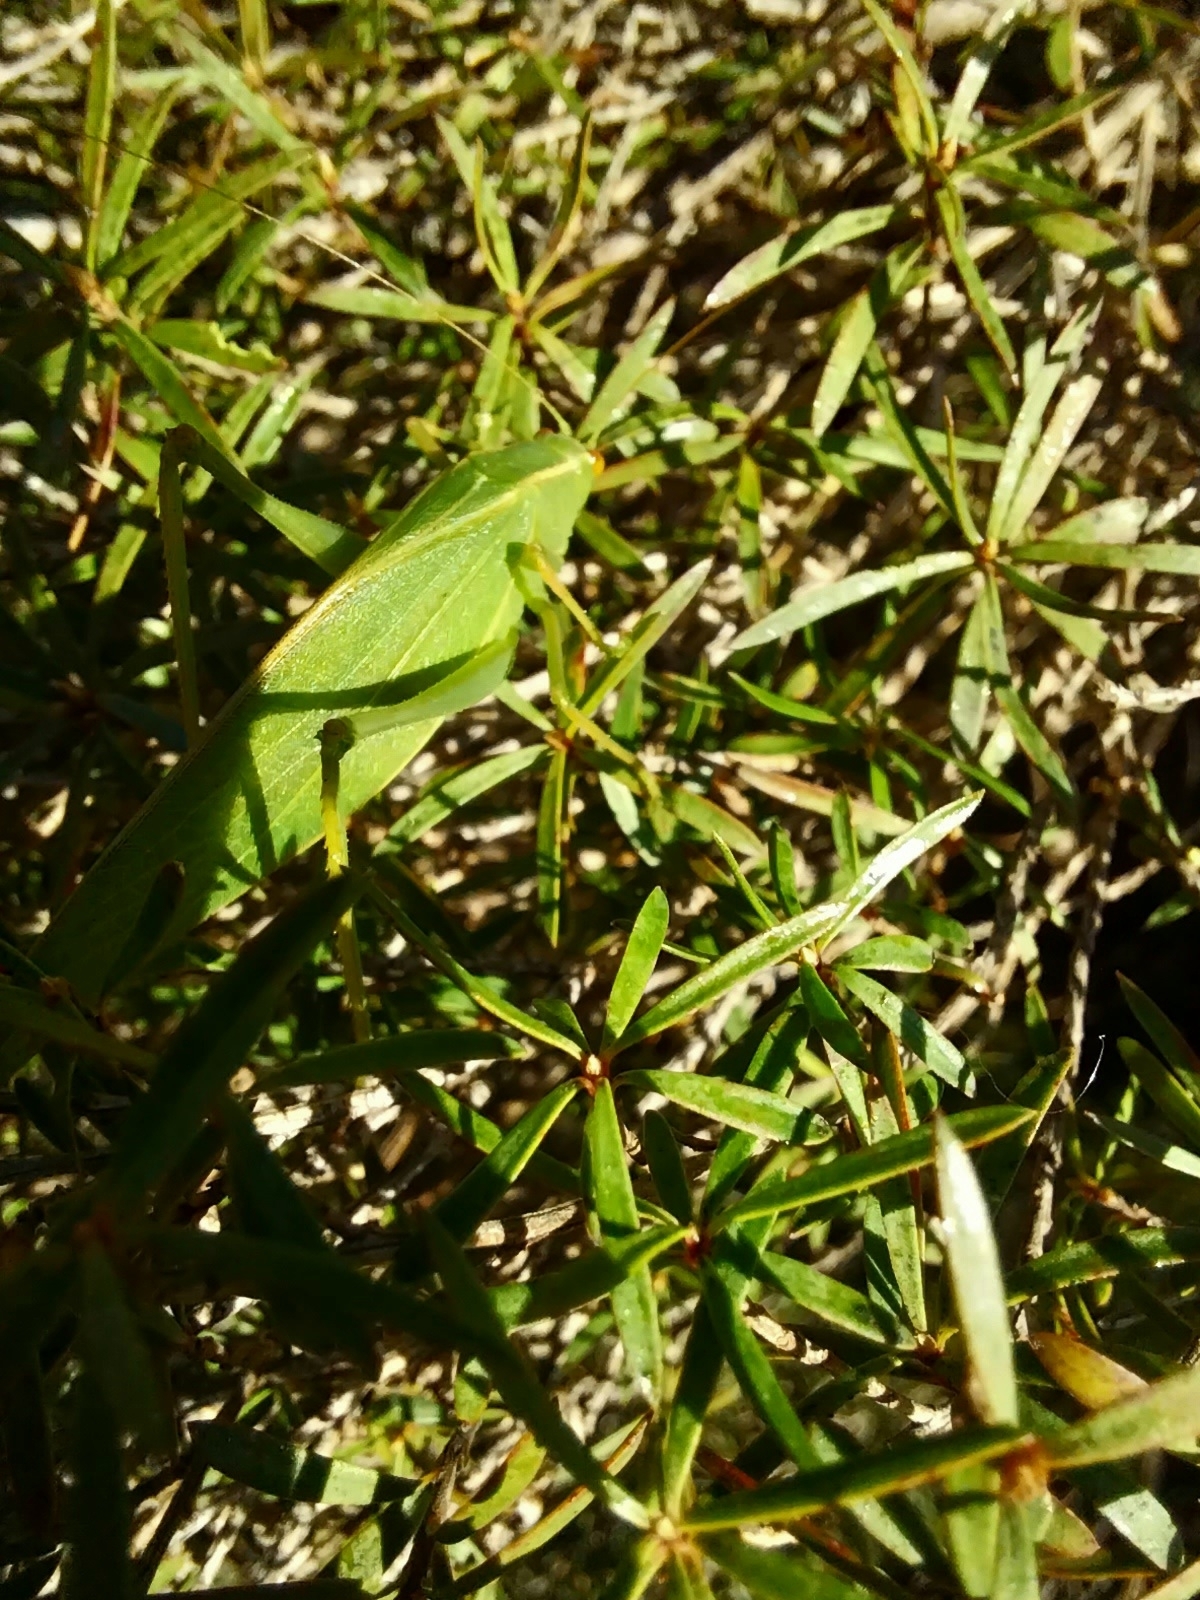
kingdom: Animalia
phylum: Arthropoda
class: Insecta
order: Orthoptera
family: Tettigoniidae
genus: Caedicia
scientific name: Caedicia simplex
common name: Common garden katydid
